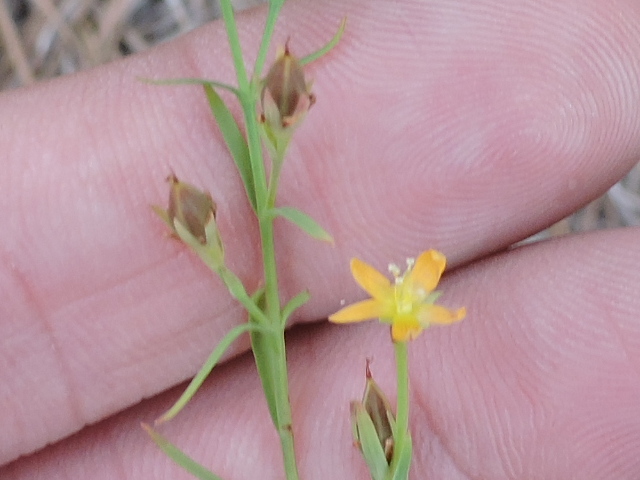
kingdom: Plantae
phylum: Tracheophyta
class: Magnoliopsida
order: Malpighiales
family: Hypericaceae
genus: Hypericum
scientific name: Hypericum drummondii
